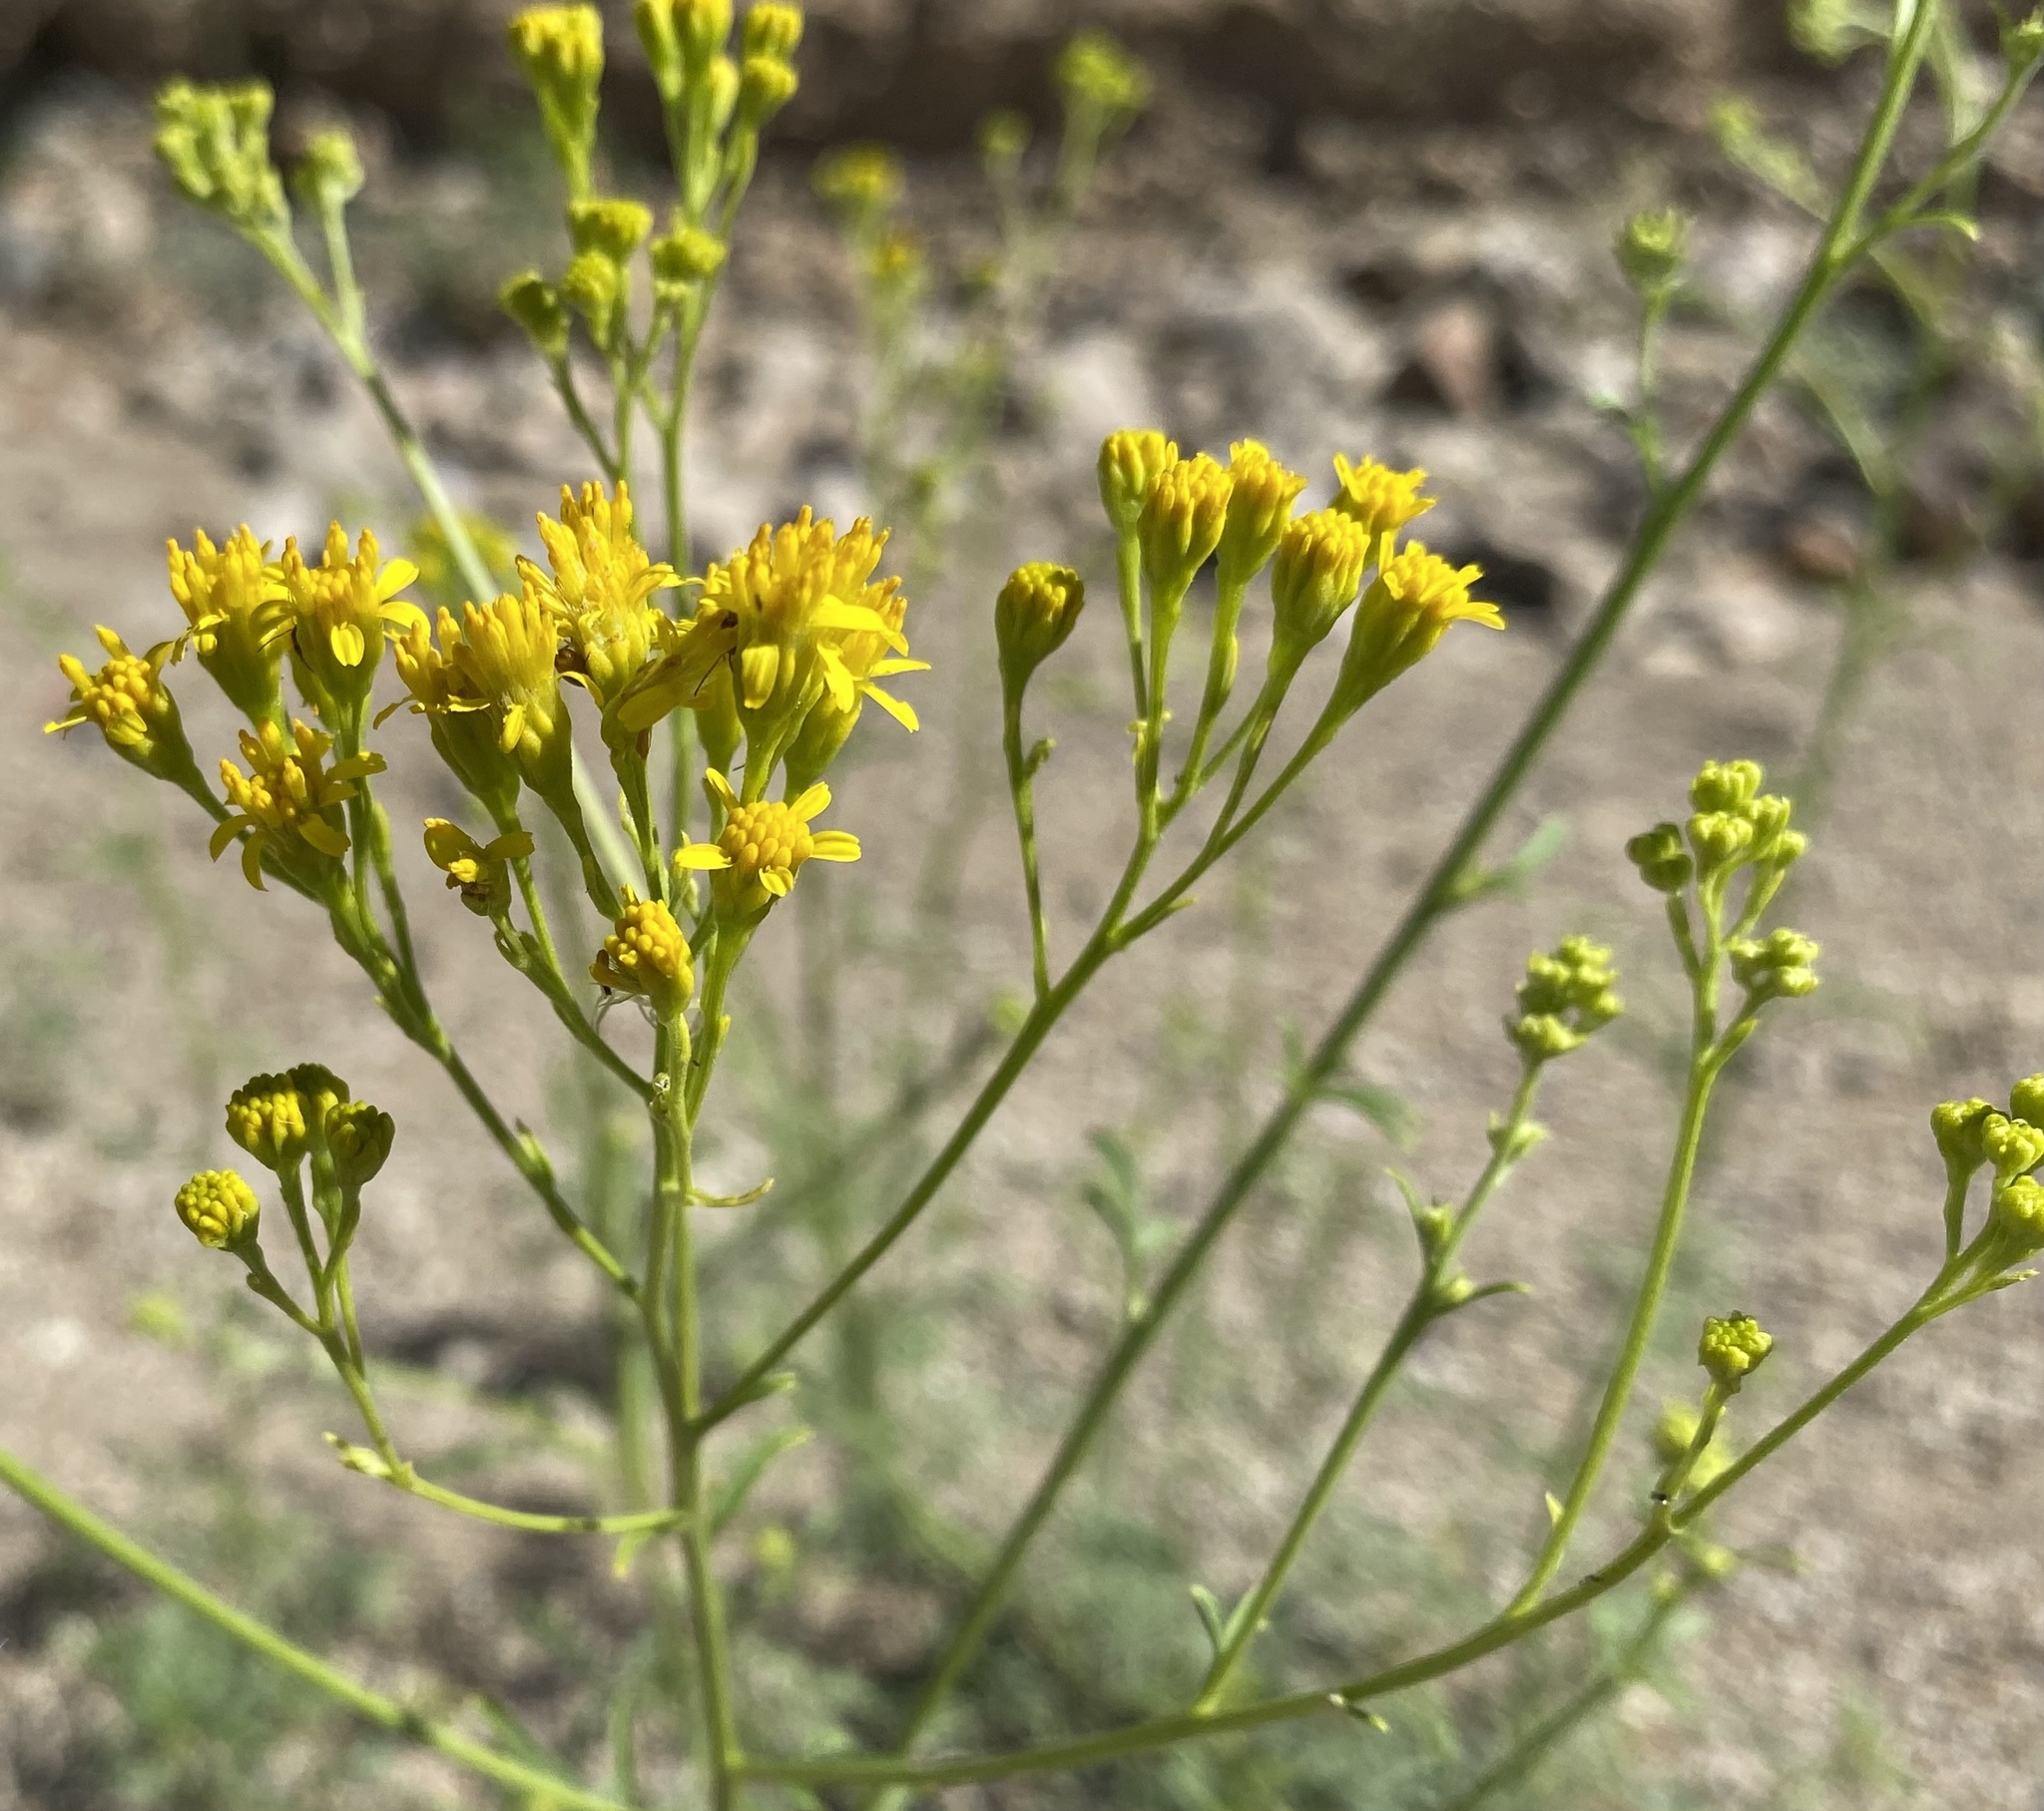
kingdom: Plantae
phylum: Tracheophyta
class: Magnoliopsida
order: Asterales
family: Asteraceae
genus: Hymenothrix
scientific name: Hymenothrix wislizeni
